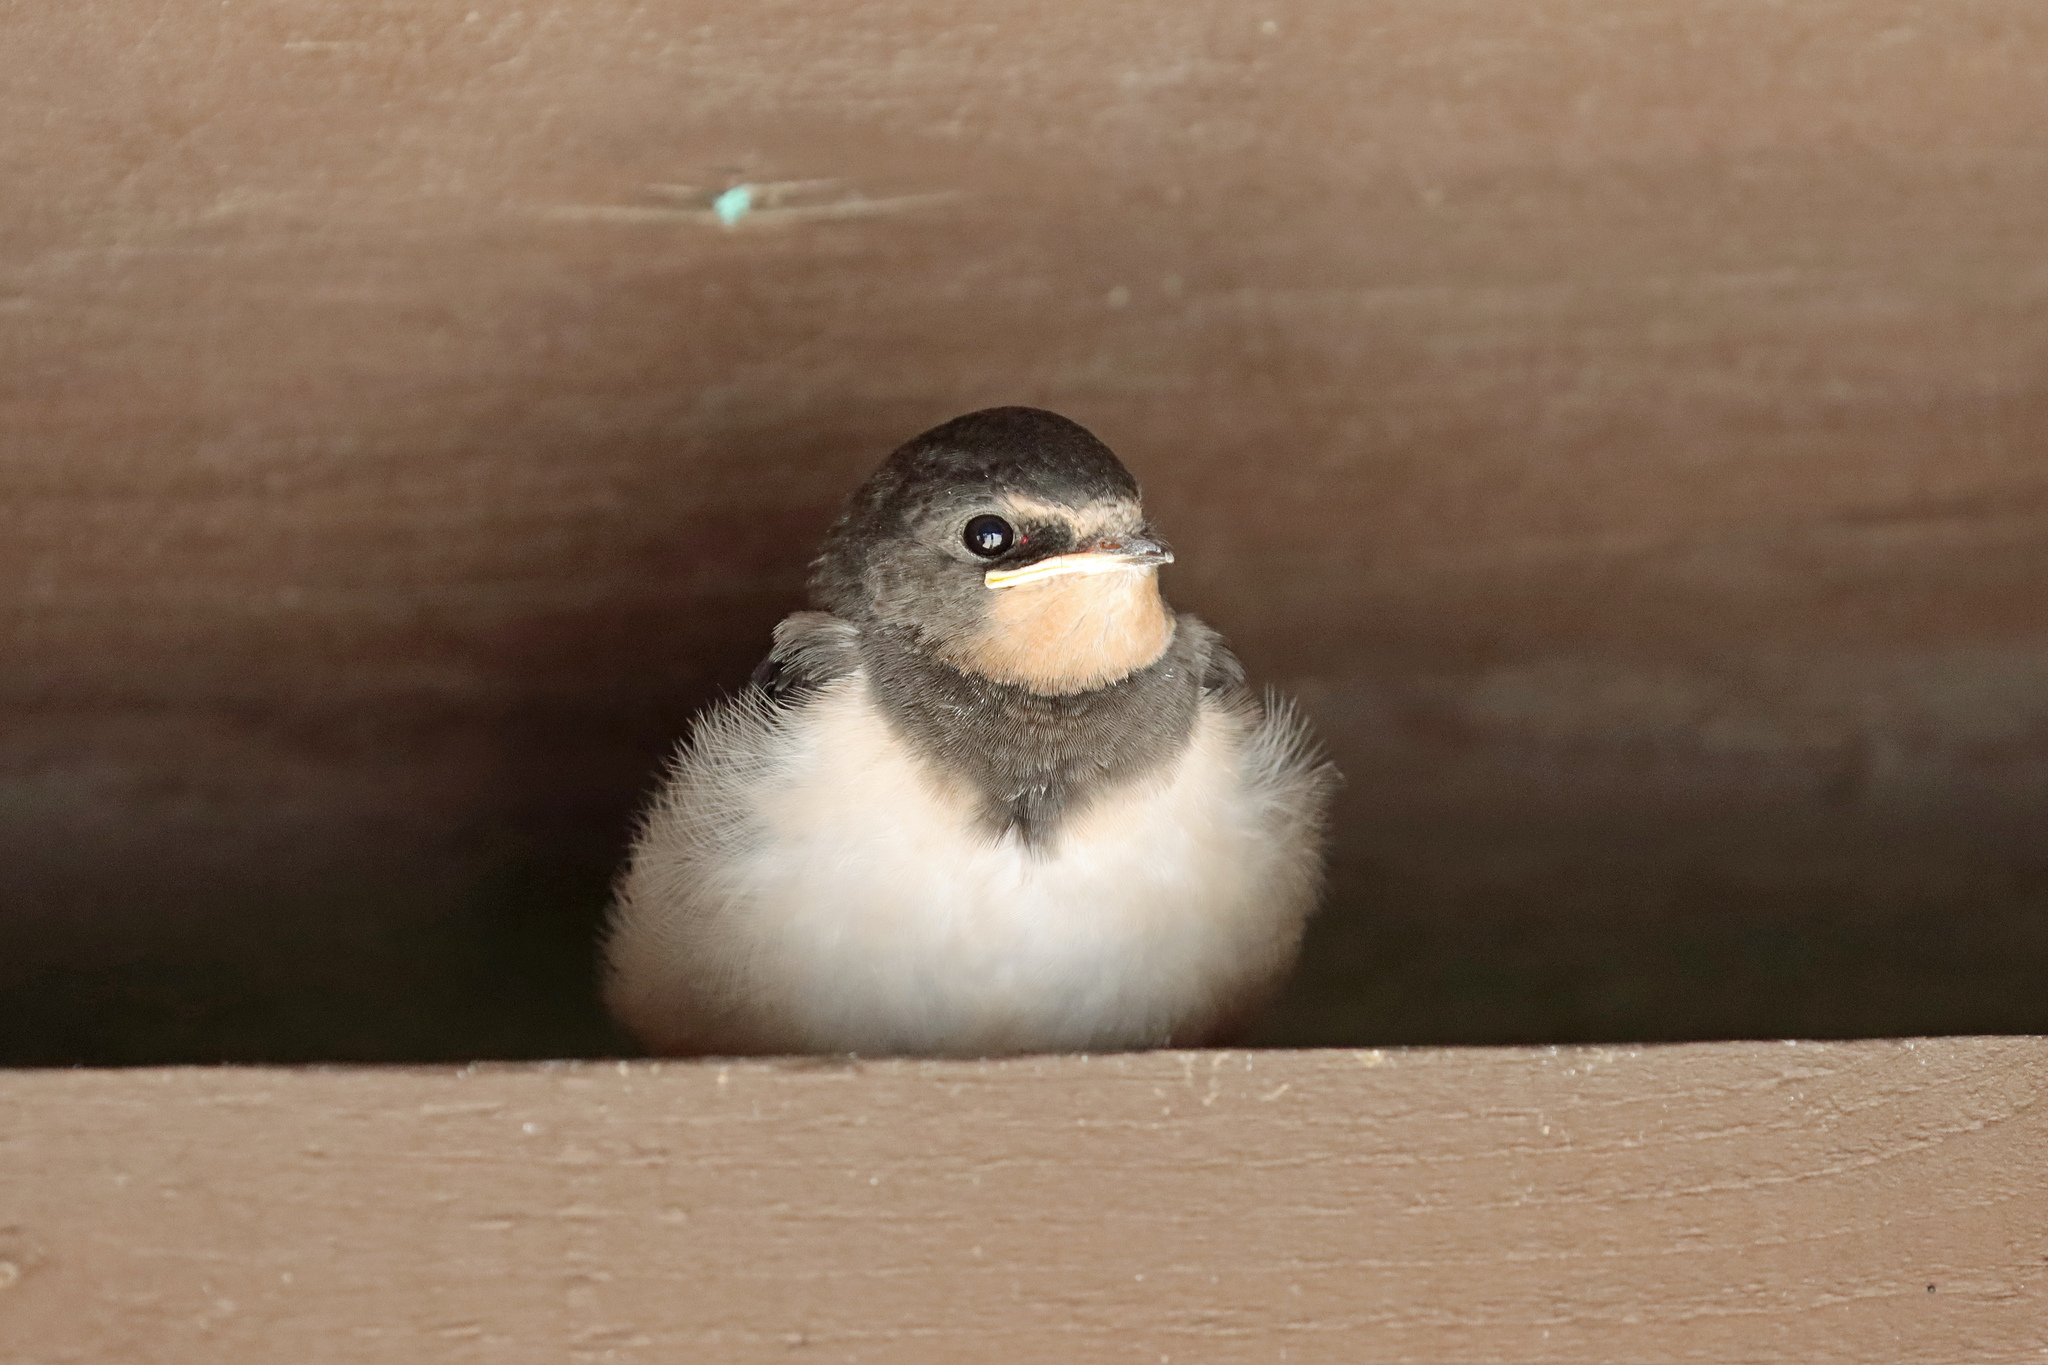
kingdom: Animalia
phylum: Chordata
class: Aves
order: Passeriformes
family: Hirundinidae
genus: Hirundo
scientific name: Hirundo rustica
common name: Barn swallow
